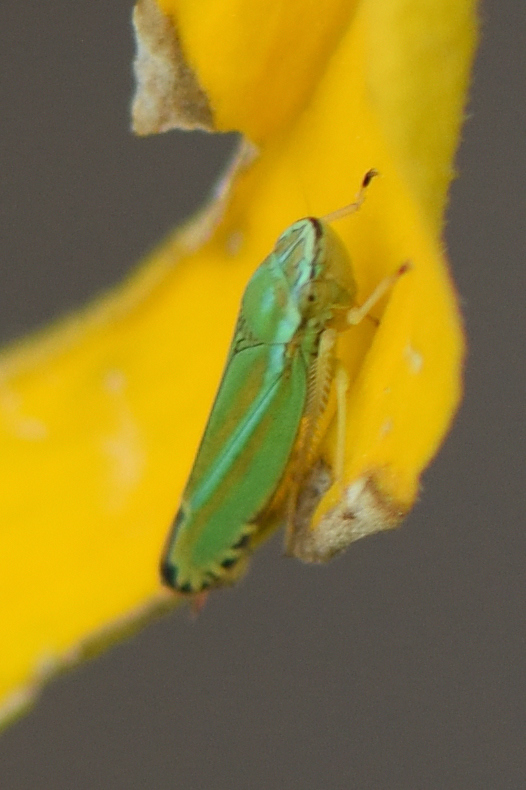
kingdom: Animalia
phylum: Arthropoda
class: Insecta
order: Hemiptera
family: Cicadellidae
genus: Graphocephala
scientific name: Graphocephala versuta
